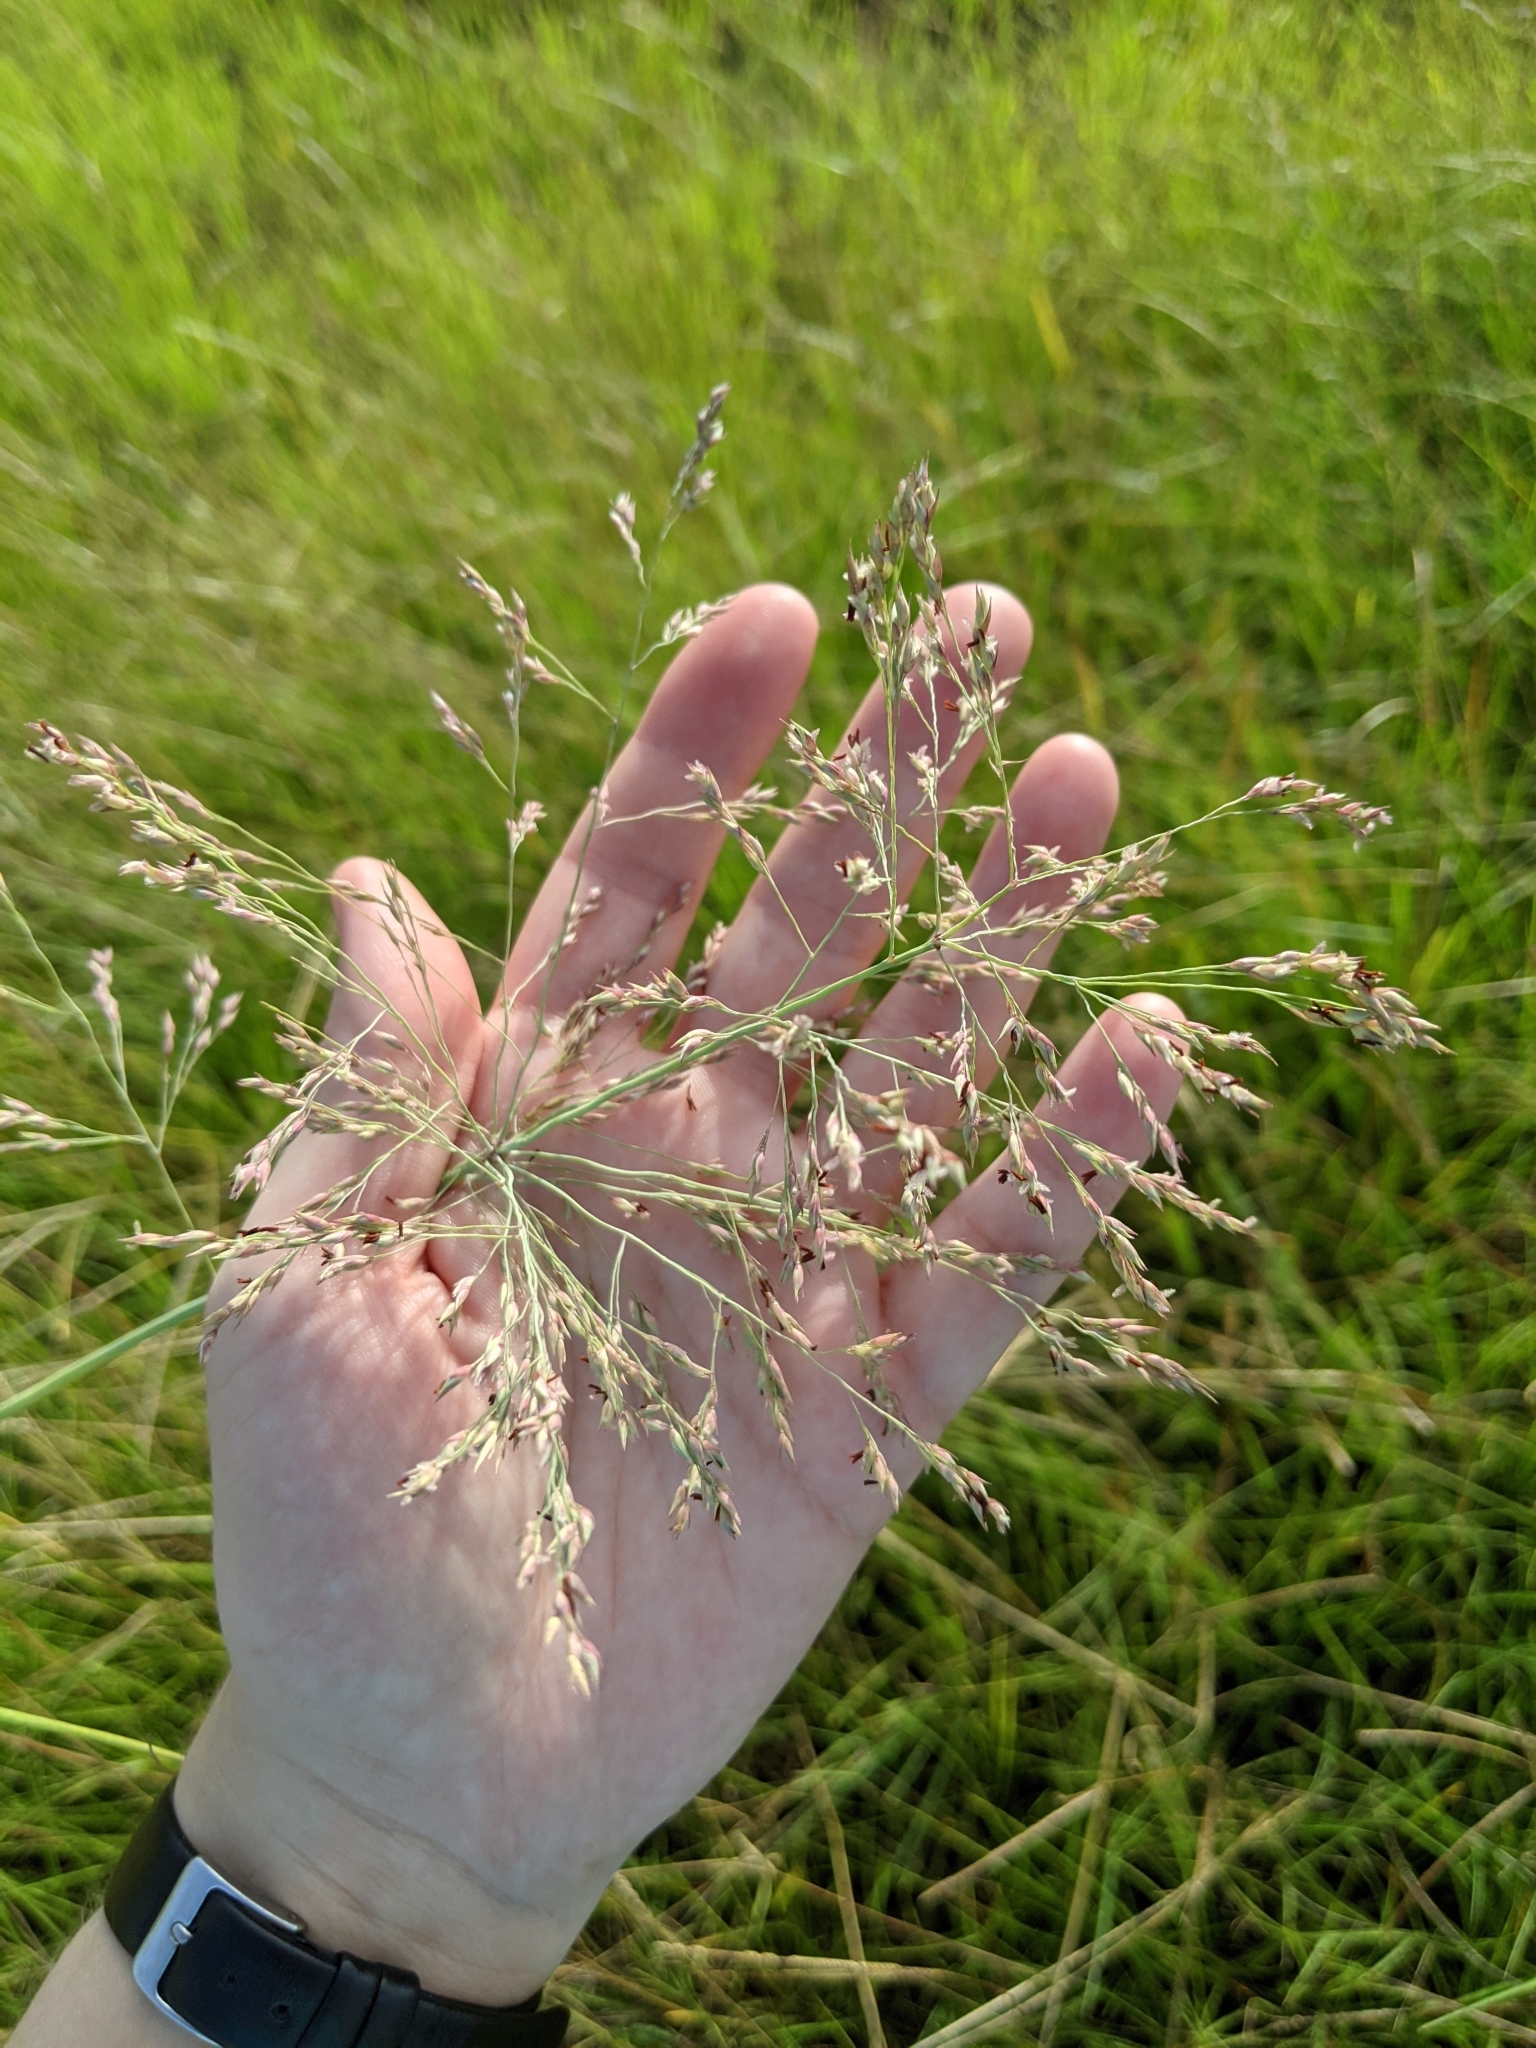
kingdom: Plantae
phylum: Tracheophyta
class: Liliopsida
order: Poales
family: Poaceae
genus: Panicum
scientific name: Panicum virgatum
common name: Switchgrass
